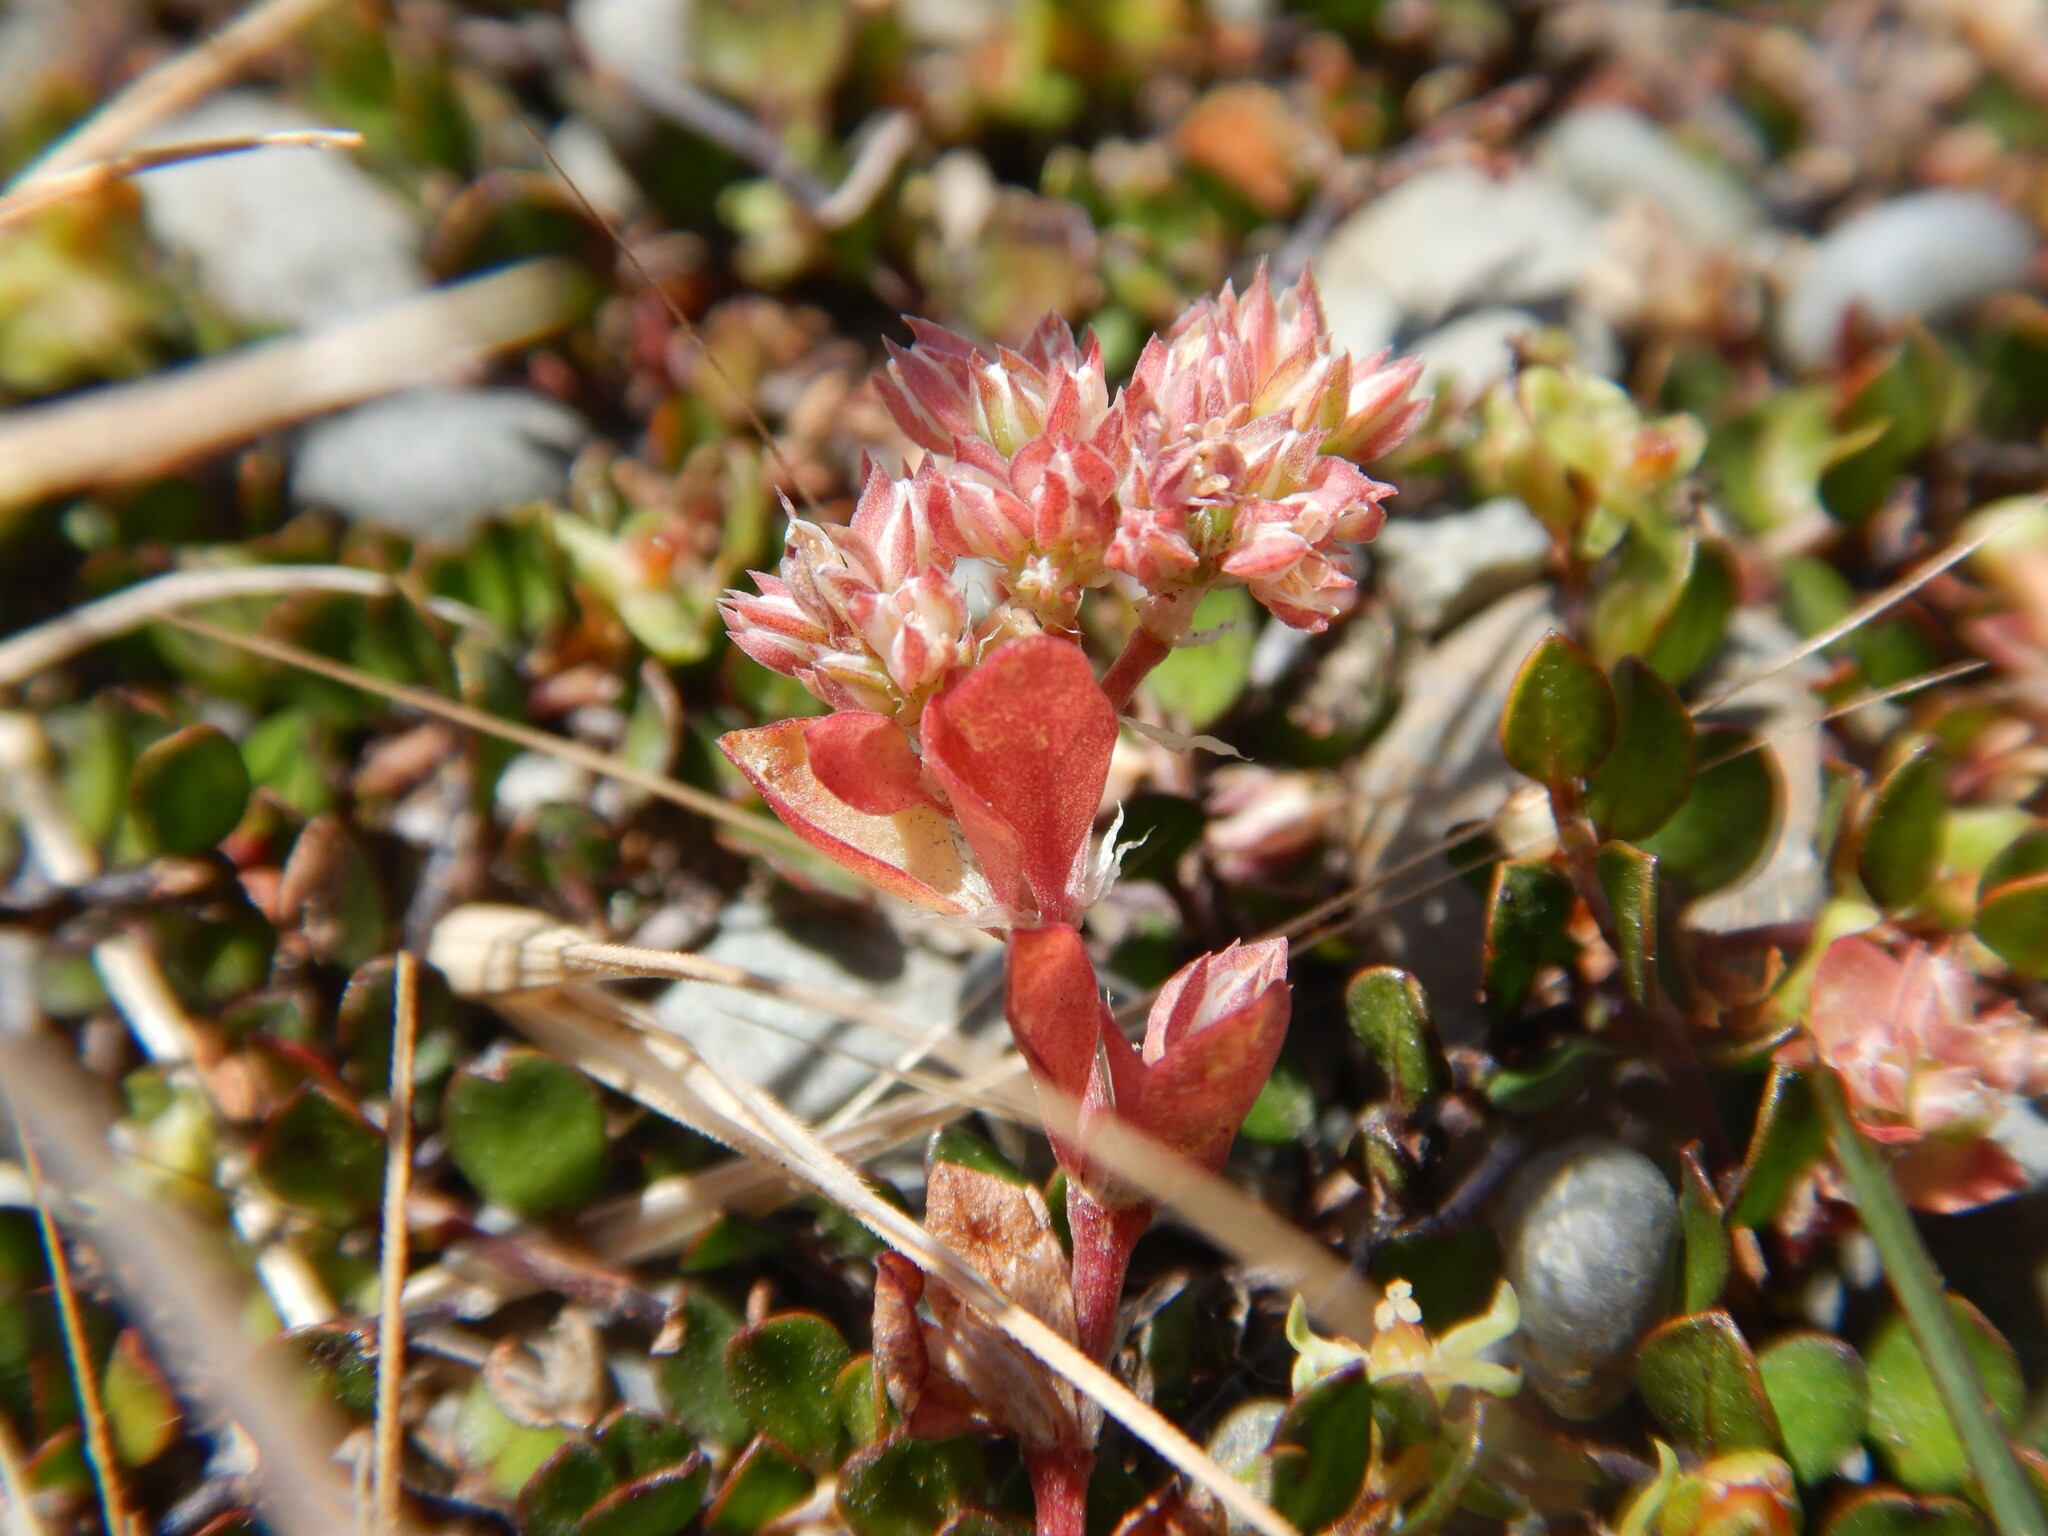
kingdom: Plantae
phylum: Tracheophyta
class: Magnoliopsida
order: Caryophyllales
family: Caryophyllaceae
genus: Polycarpon
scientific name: Polycarpon tetraphyllum
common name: Four-leaved all-seed
